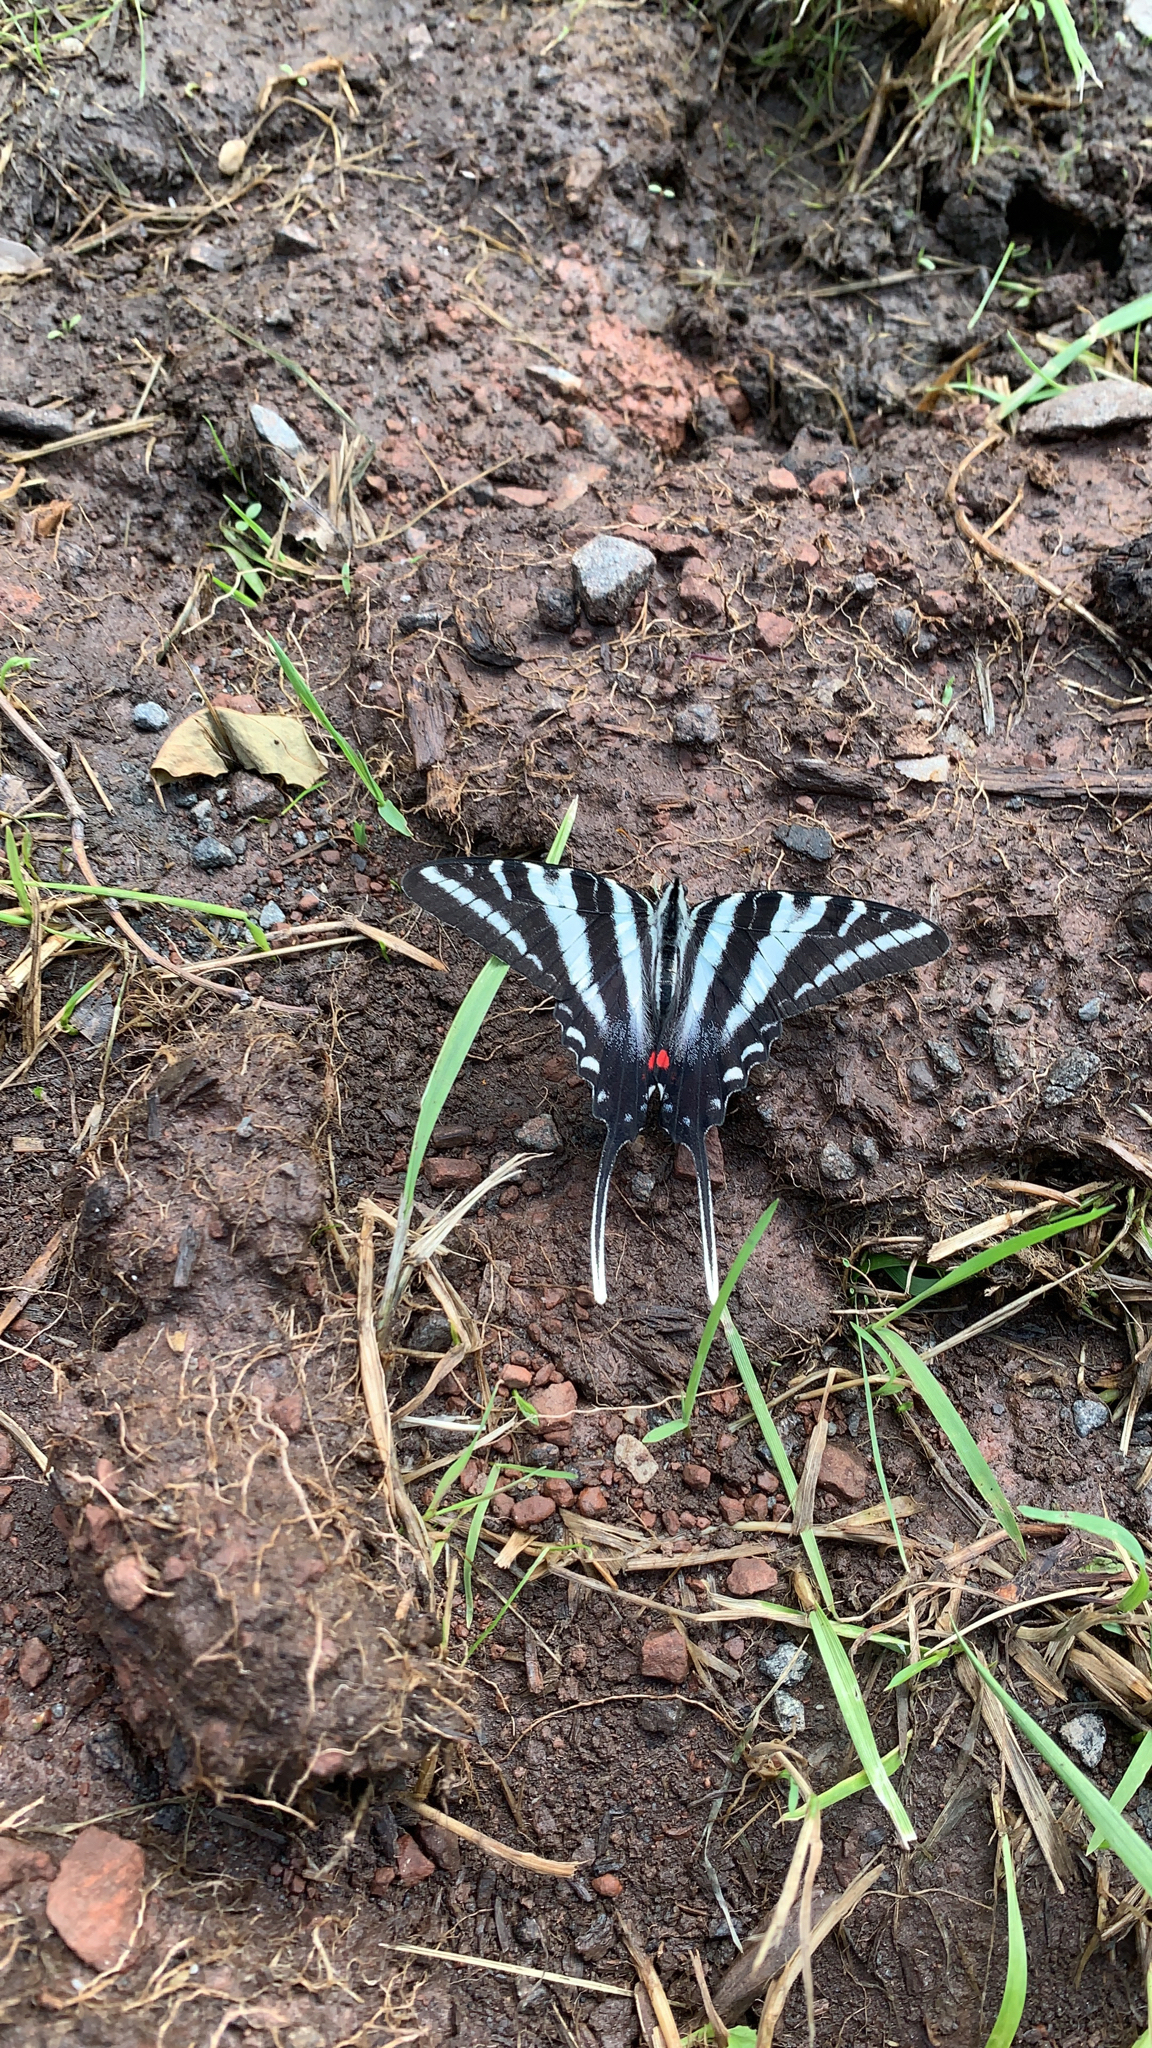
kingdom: Animalia
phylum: Arthropoda
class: Insecta
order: Lepidoptera
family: Papilionidae
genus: Protographium
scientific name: Protographium marcellus
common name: Zebra swallowtail
